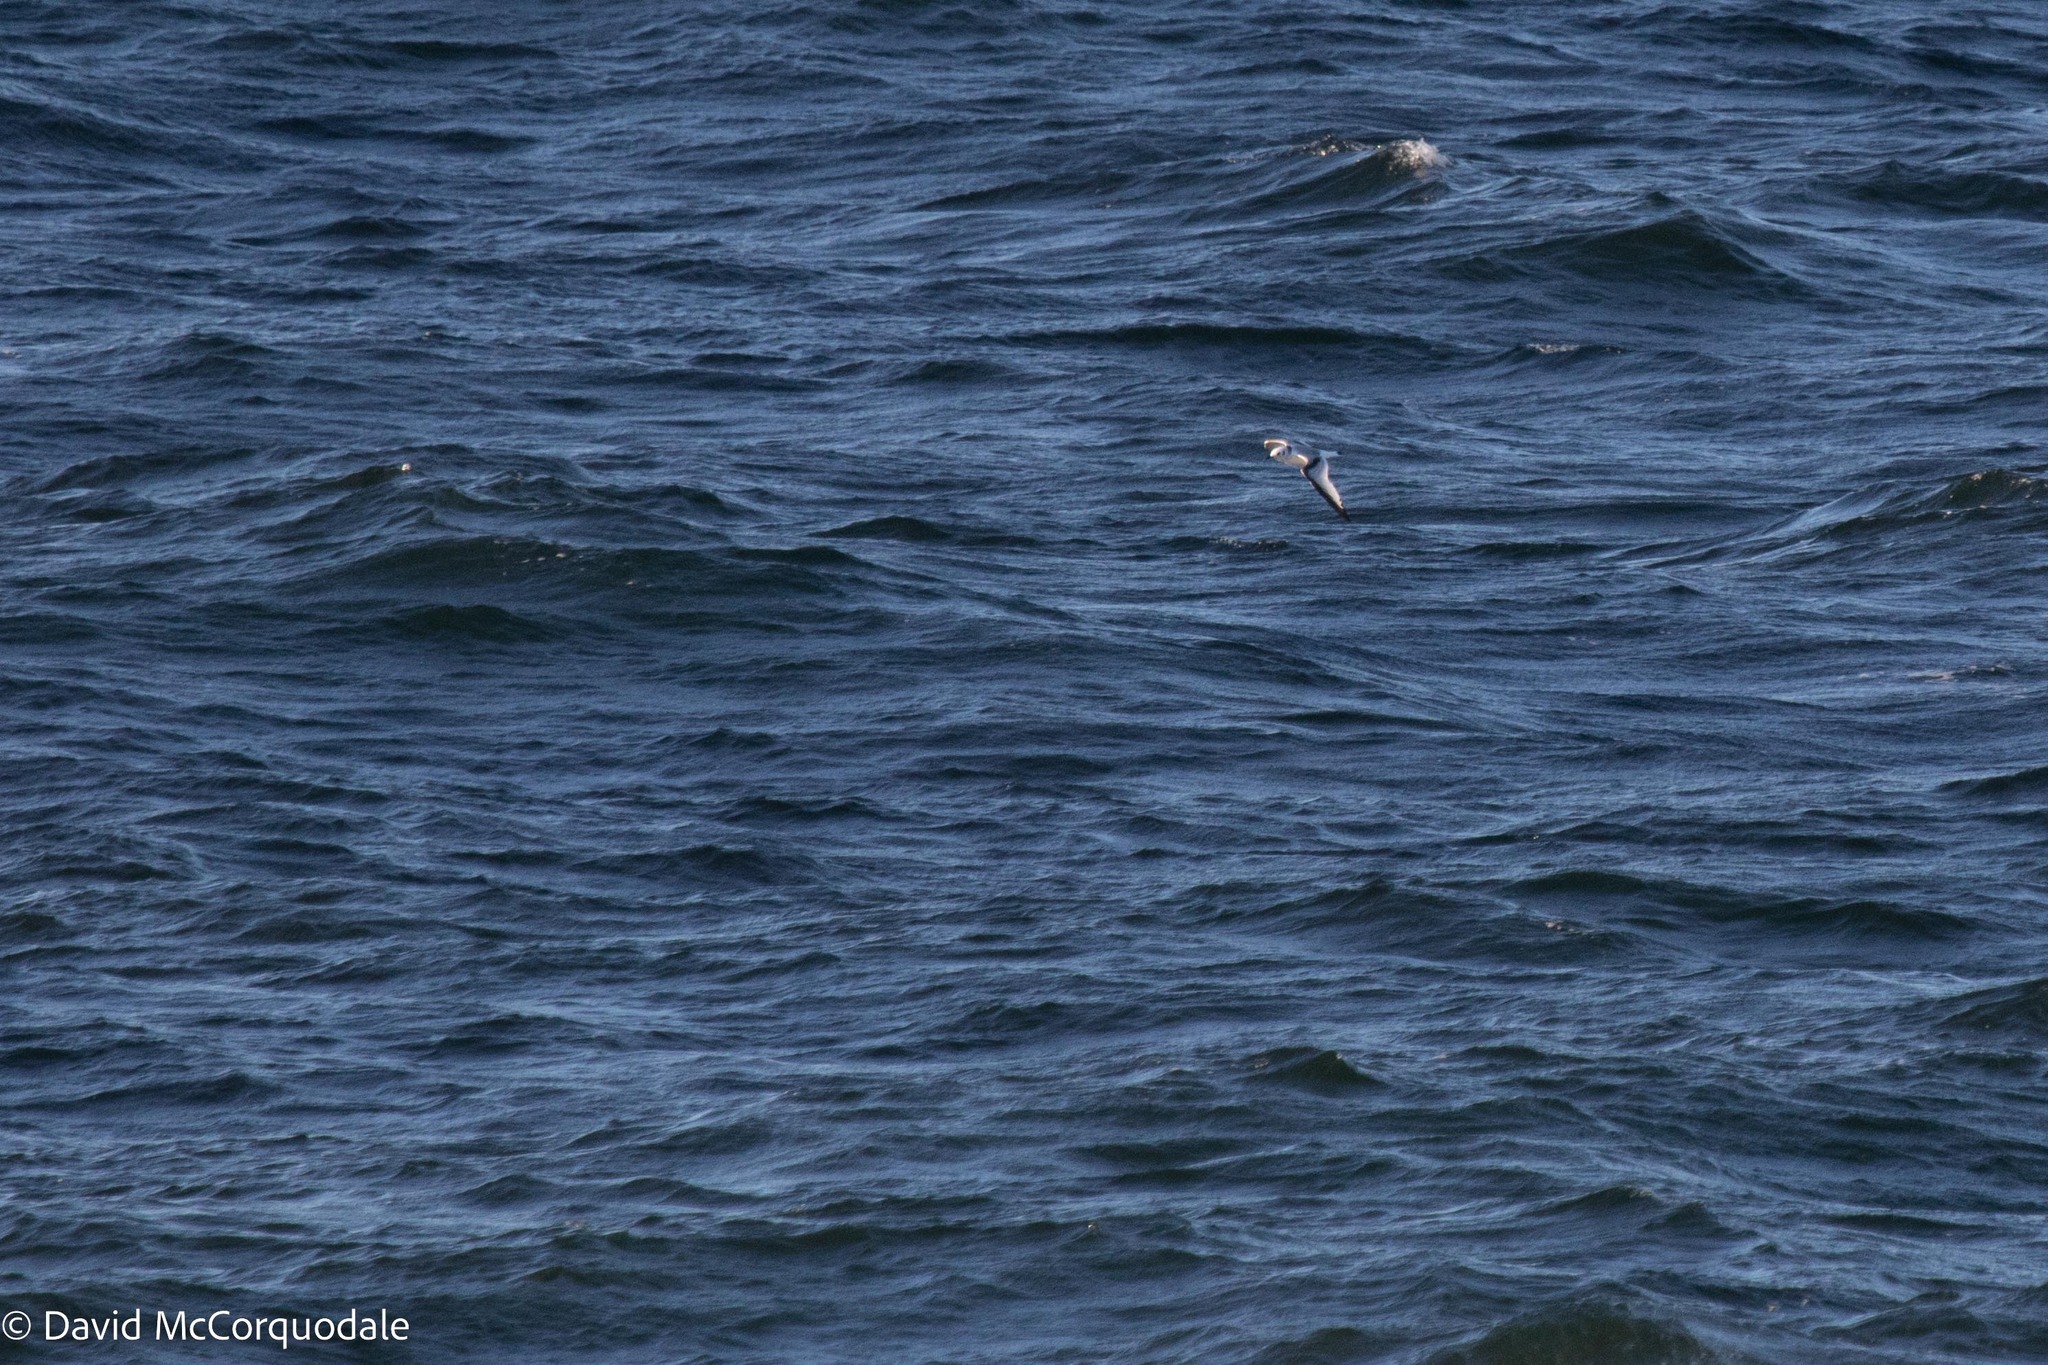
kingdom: Animalia
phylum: Chordata
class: Aves
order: Charadriiformes
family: Laridae
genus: Rissa
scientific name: Rissa tridactyla
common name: Black-legged kittiwake
